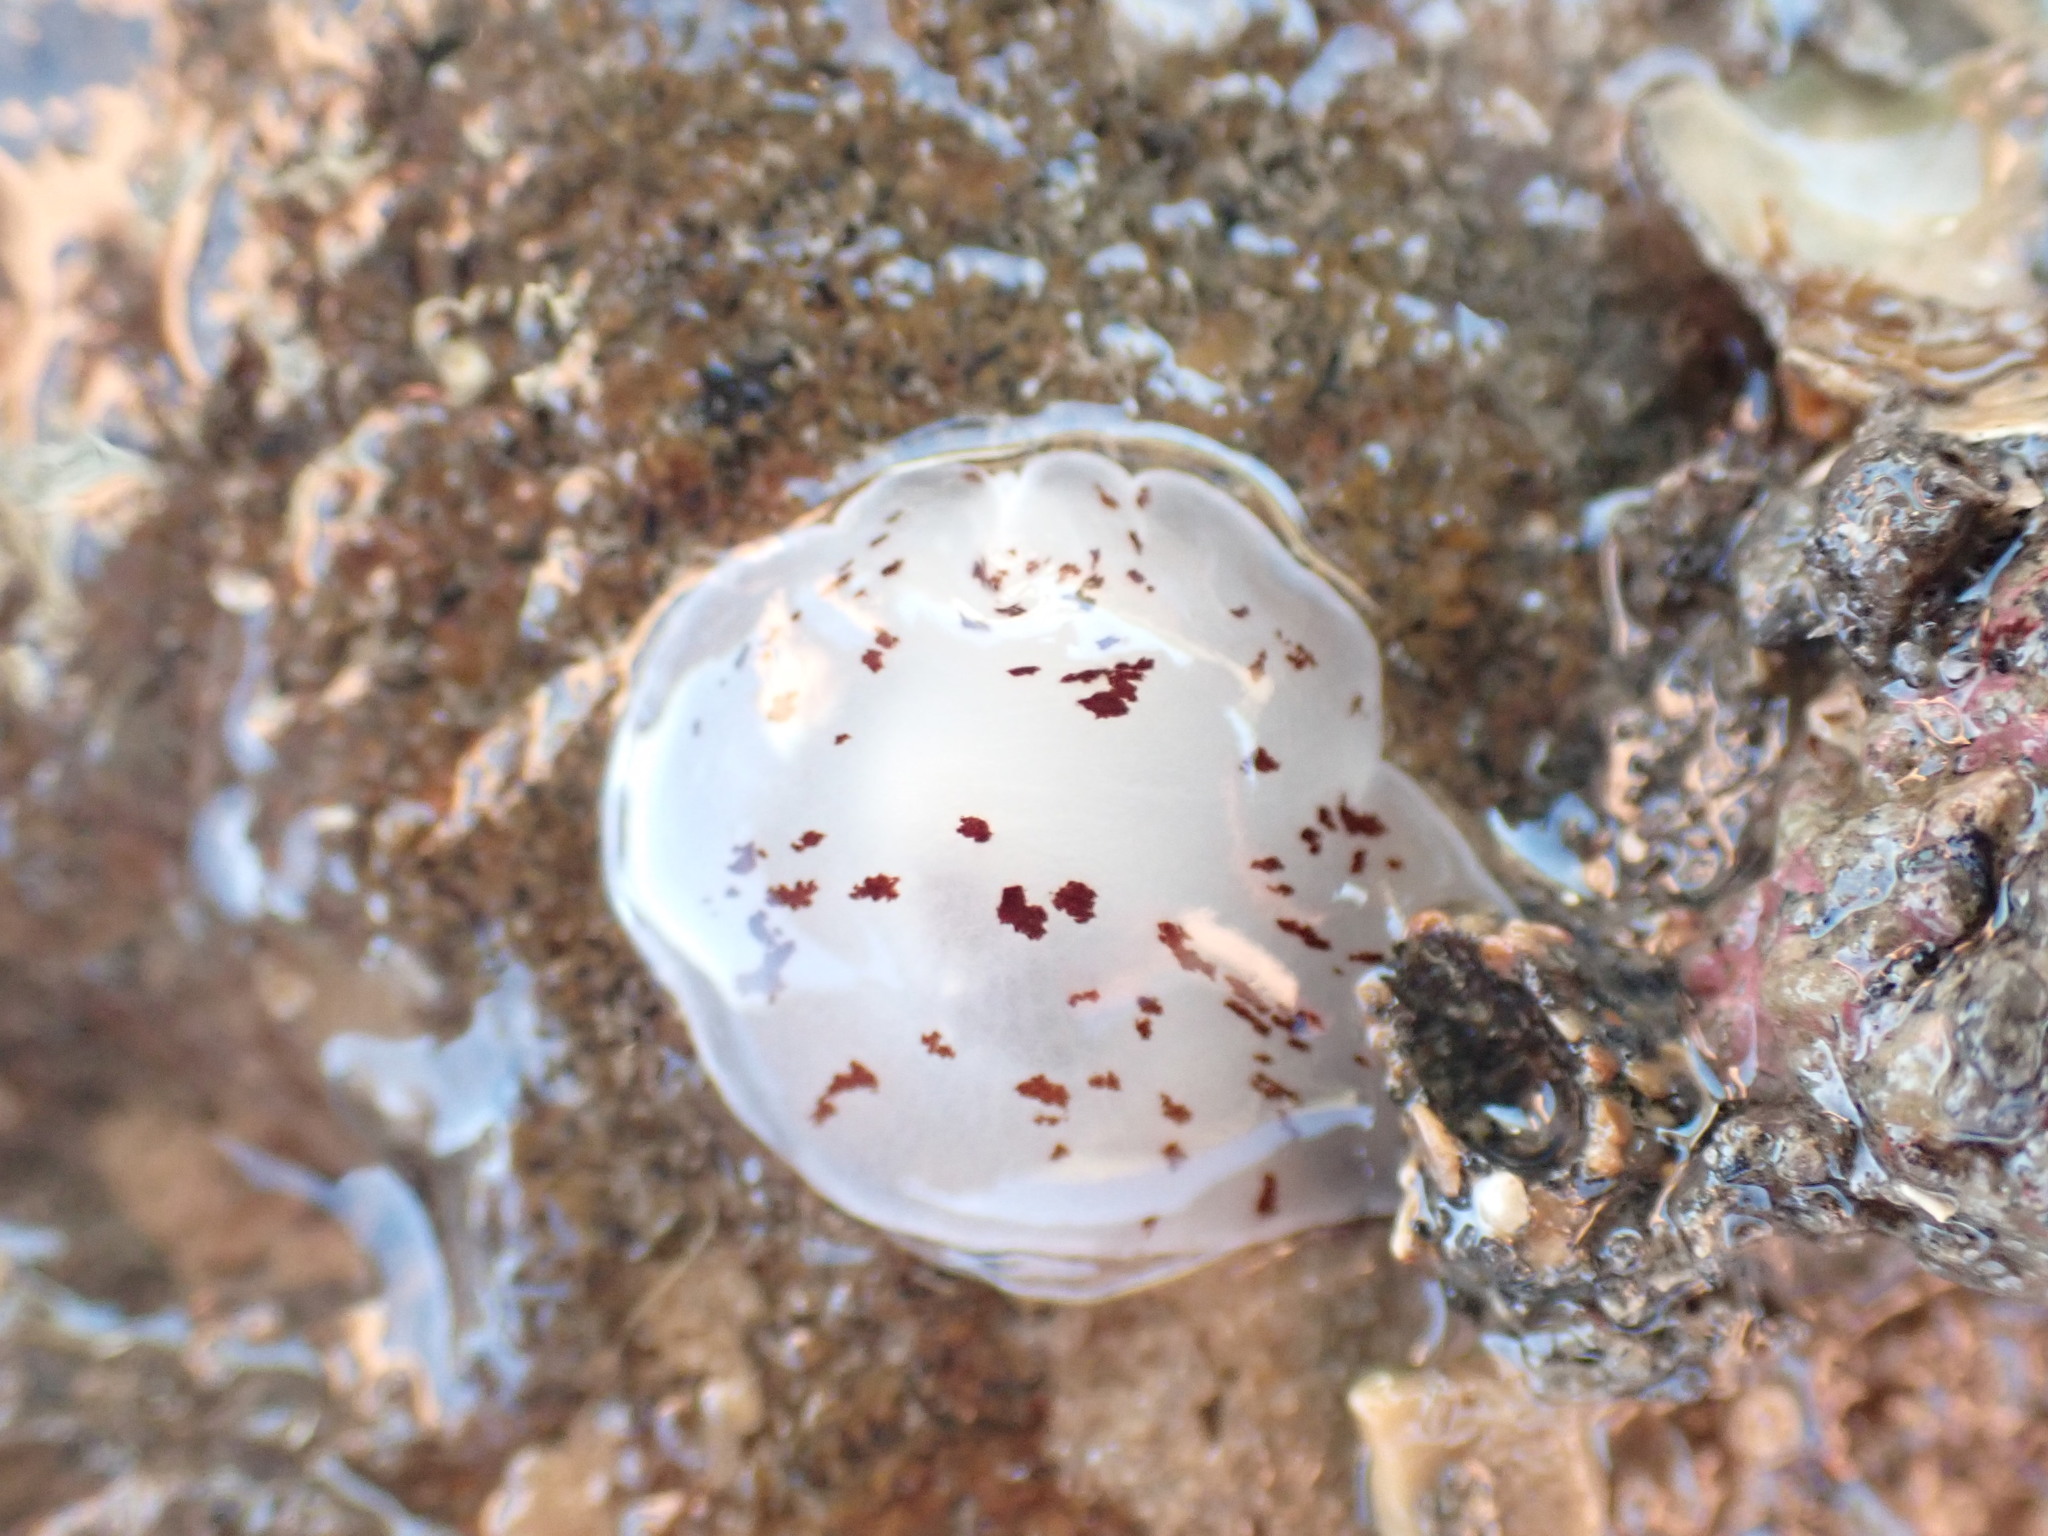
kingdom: Animalia
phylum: Mollusca
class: Gastropoda
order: Pleurobranchida
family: Pleurobranchidae
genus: Berthella
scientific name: Berthella ornata
